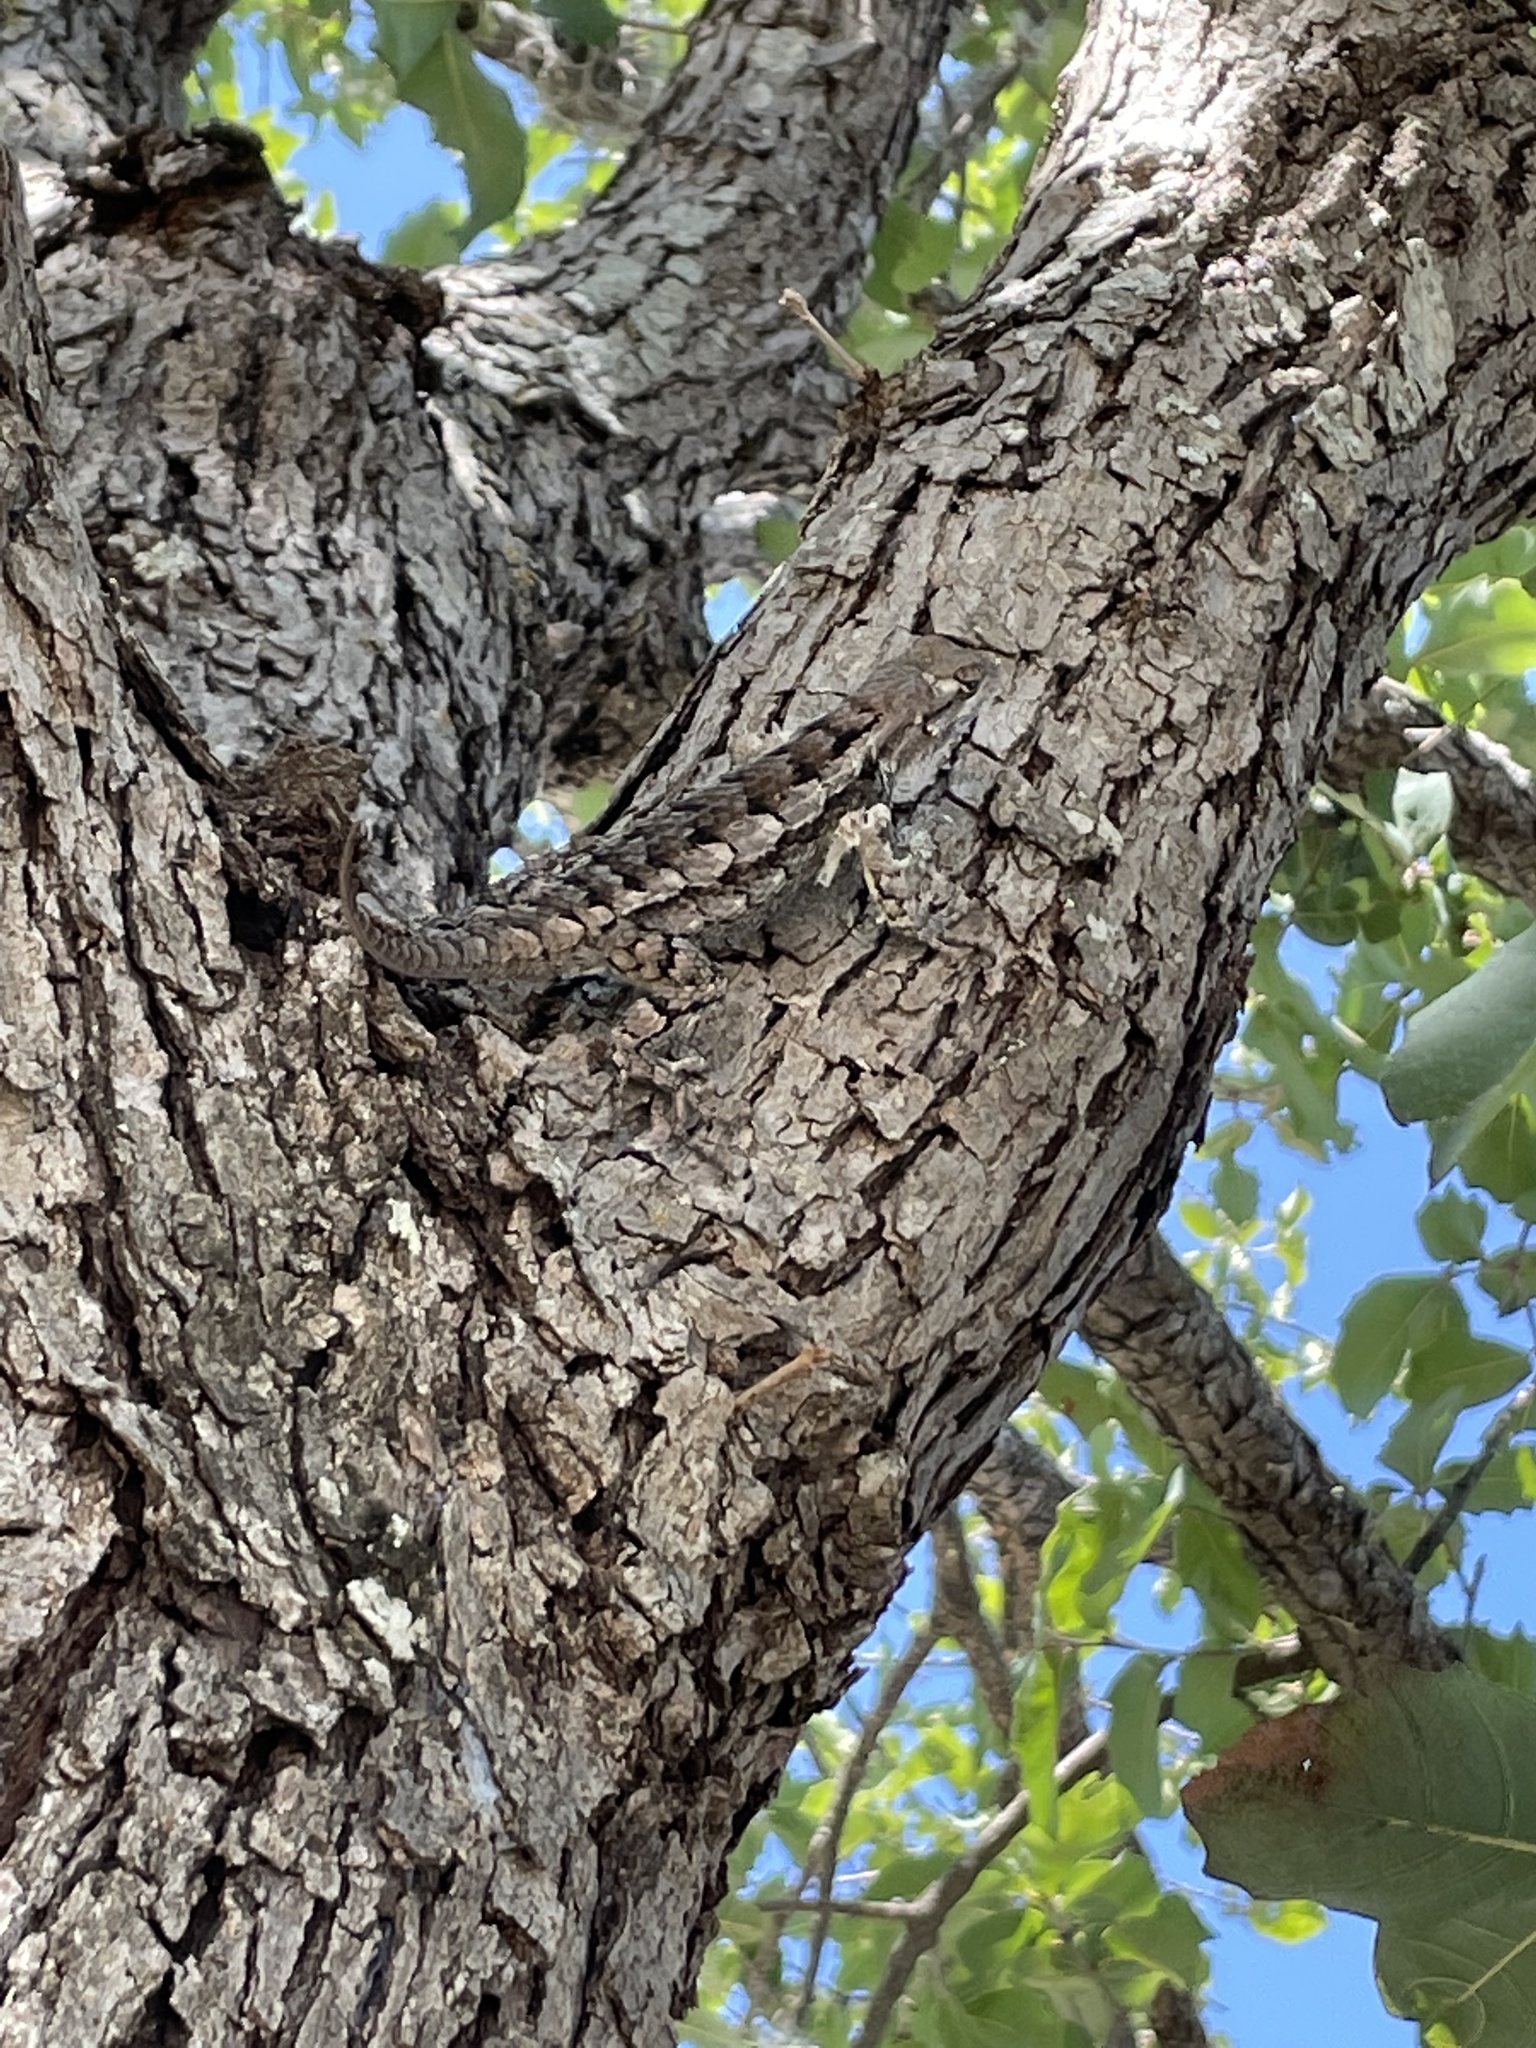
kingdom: Animalia
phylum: Chordata
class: Squamata
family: Phrynosomatidae
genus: Sceloporus
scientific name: Sceloporus olivaceus
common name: Texas spiny lizard
